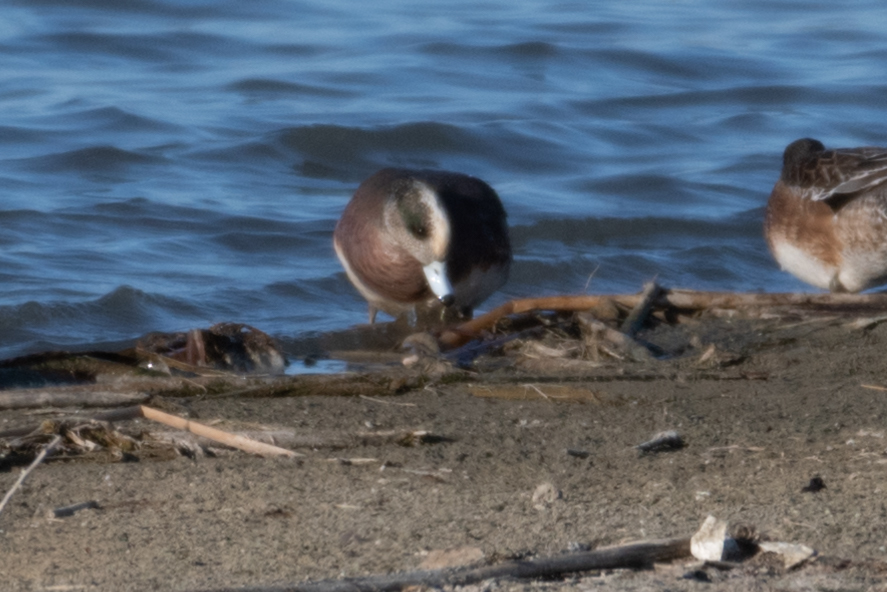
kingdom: Animalia
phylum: Chordata
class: Aves
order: Anseriformes
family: Anatidae
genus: Mareca
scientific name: Mareca americana
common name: American wigeon
